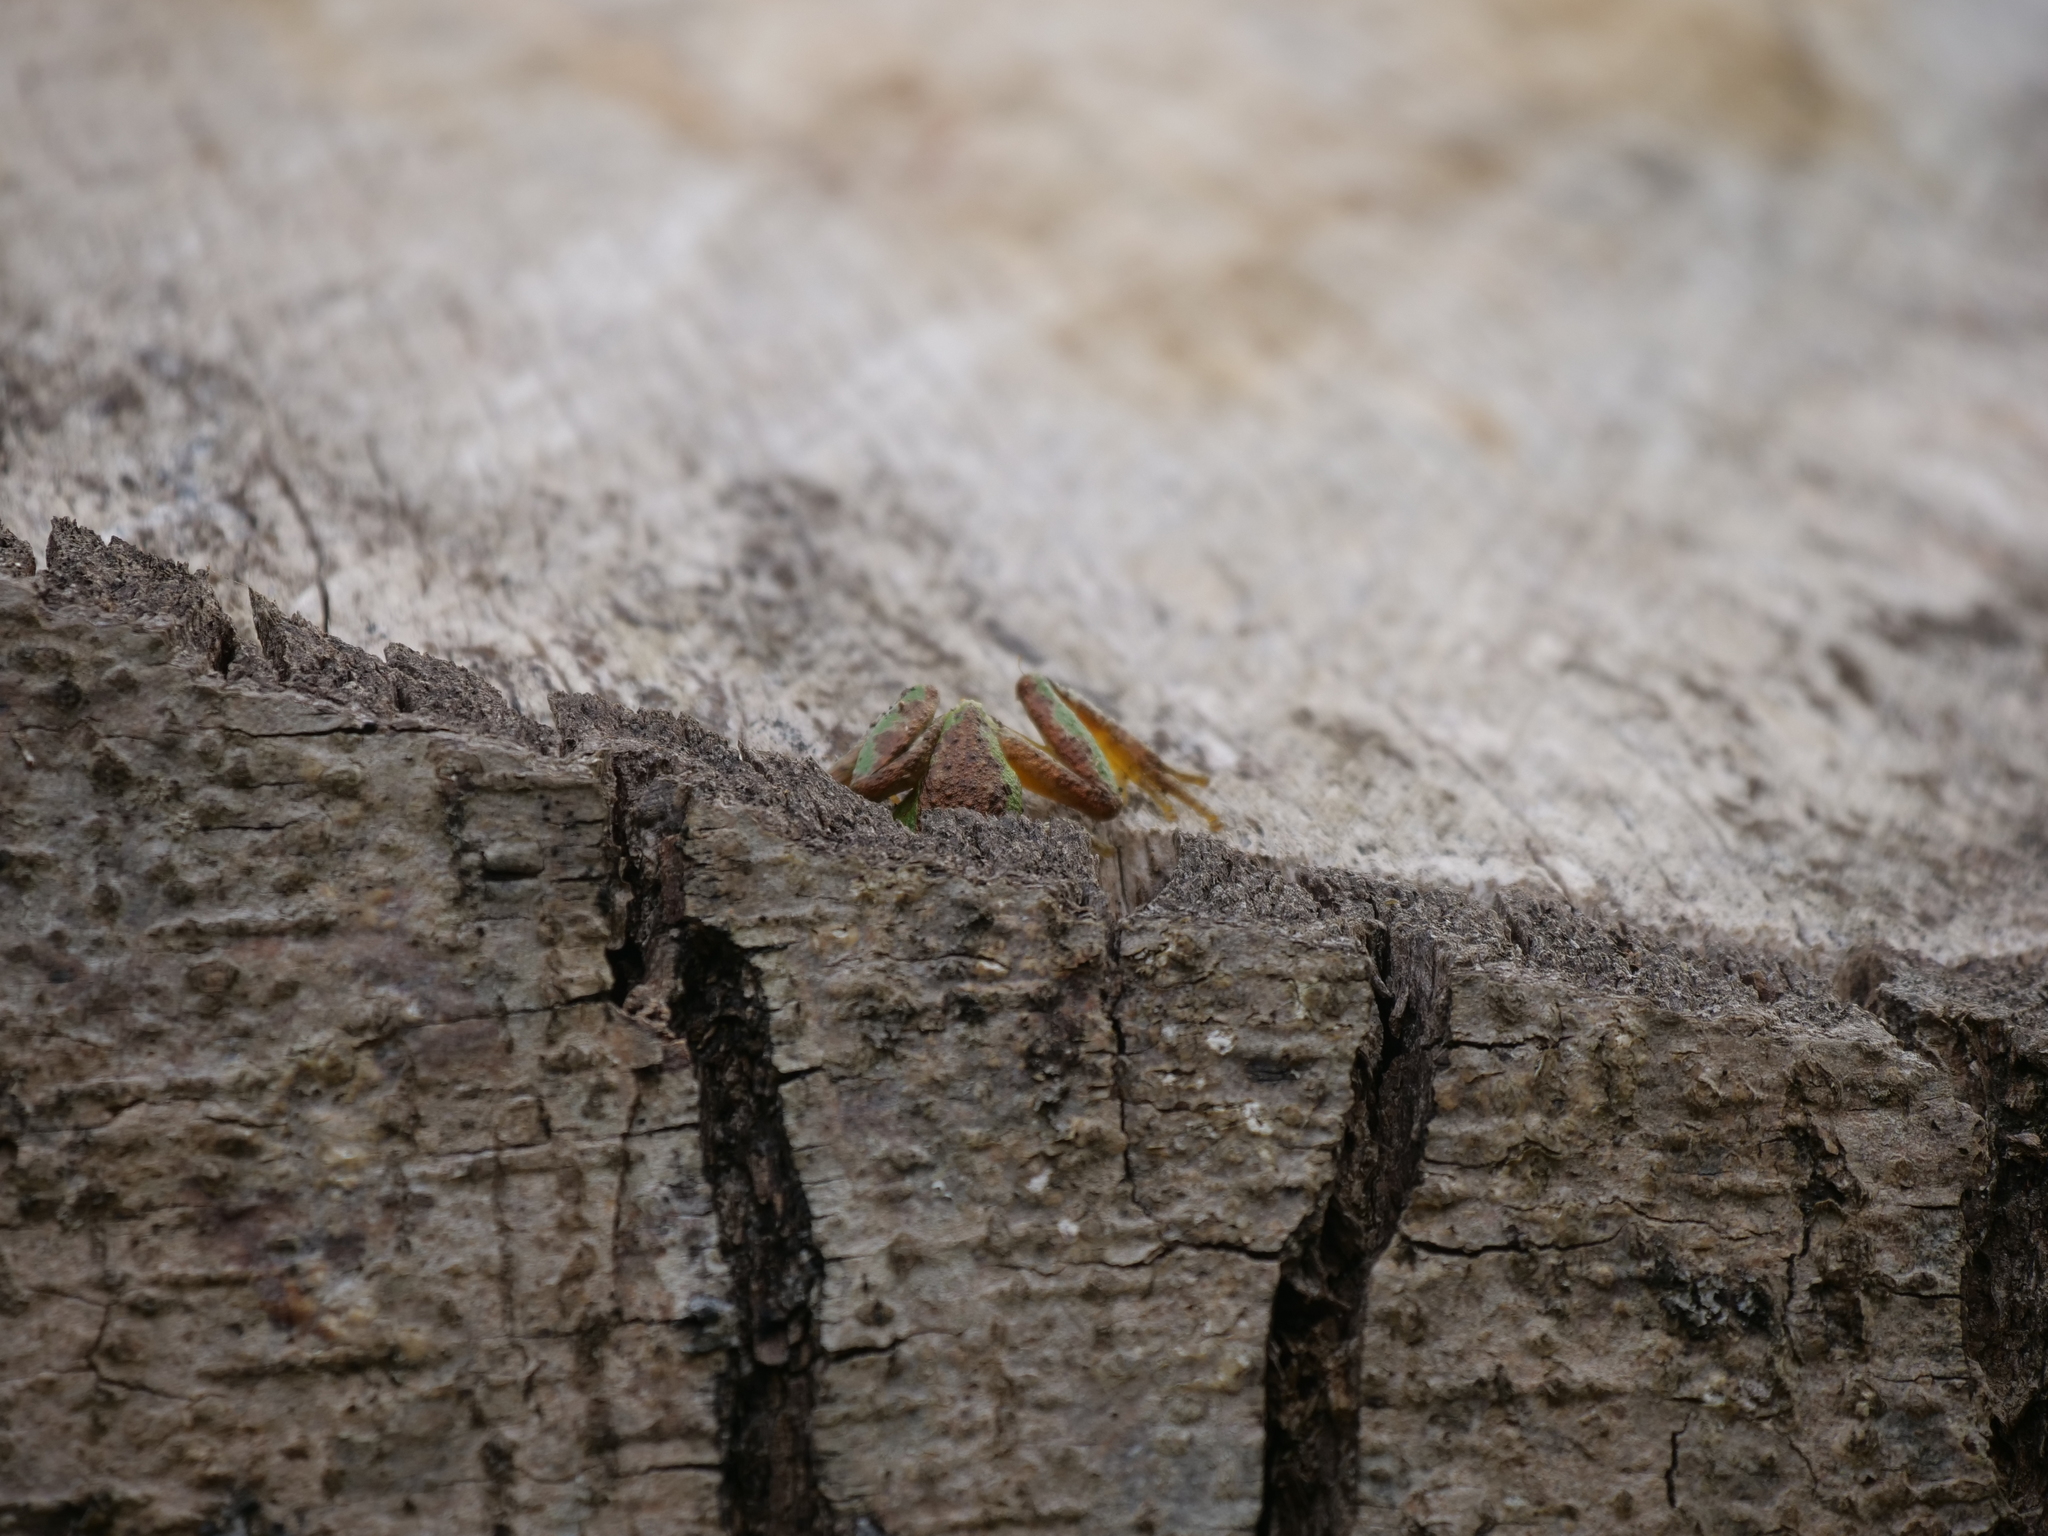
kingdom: Animalia
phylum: Chordata
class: Amphibia
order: Anura
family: Hylidae
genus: Pseudacris
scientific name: Pseudacris regilla
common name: Pacific chorus frog
